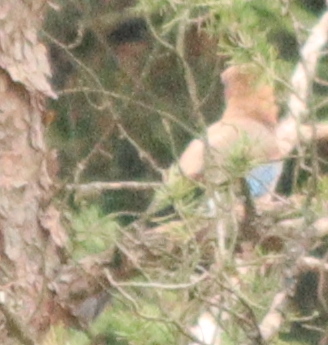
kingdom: Animalia
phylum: Chordata
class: Aves
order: Passeriformes
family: Corvidae
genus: Garrulus
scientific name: Garrulus glandarius
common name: Eurasian jay
